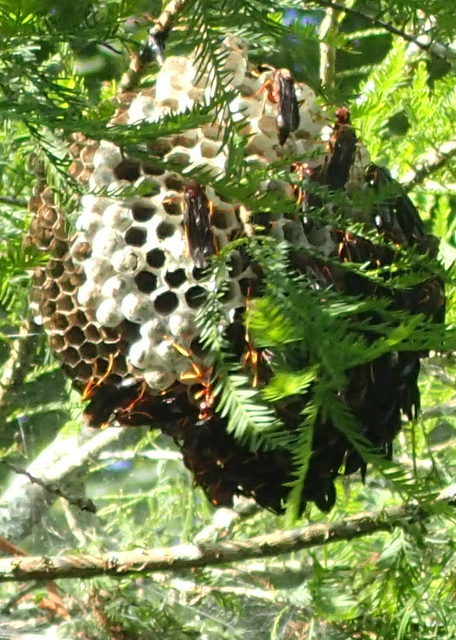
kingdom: Animalia
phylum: Arthropoda
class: Insecta
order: Hymenoptera
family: Eumenidae
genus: Polistes
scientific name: Polistes annularis
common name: Ringed paper wasp
